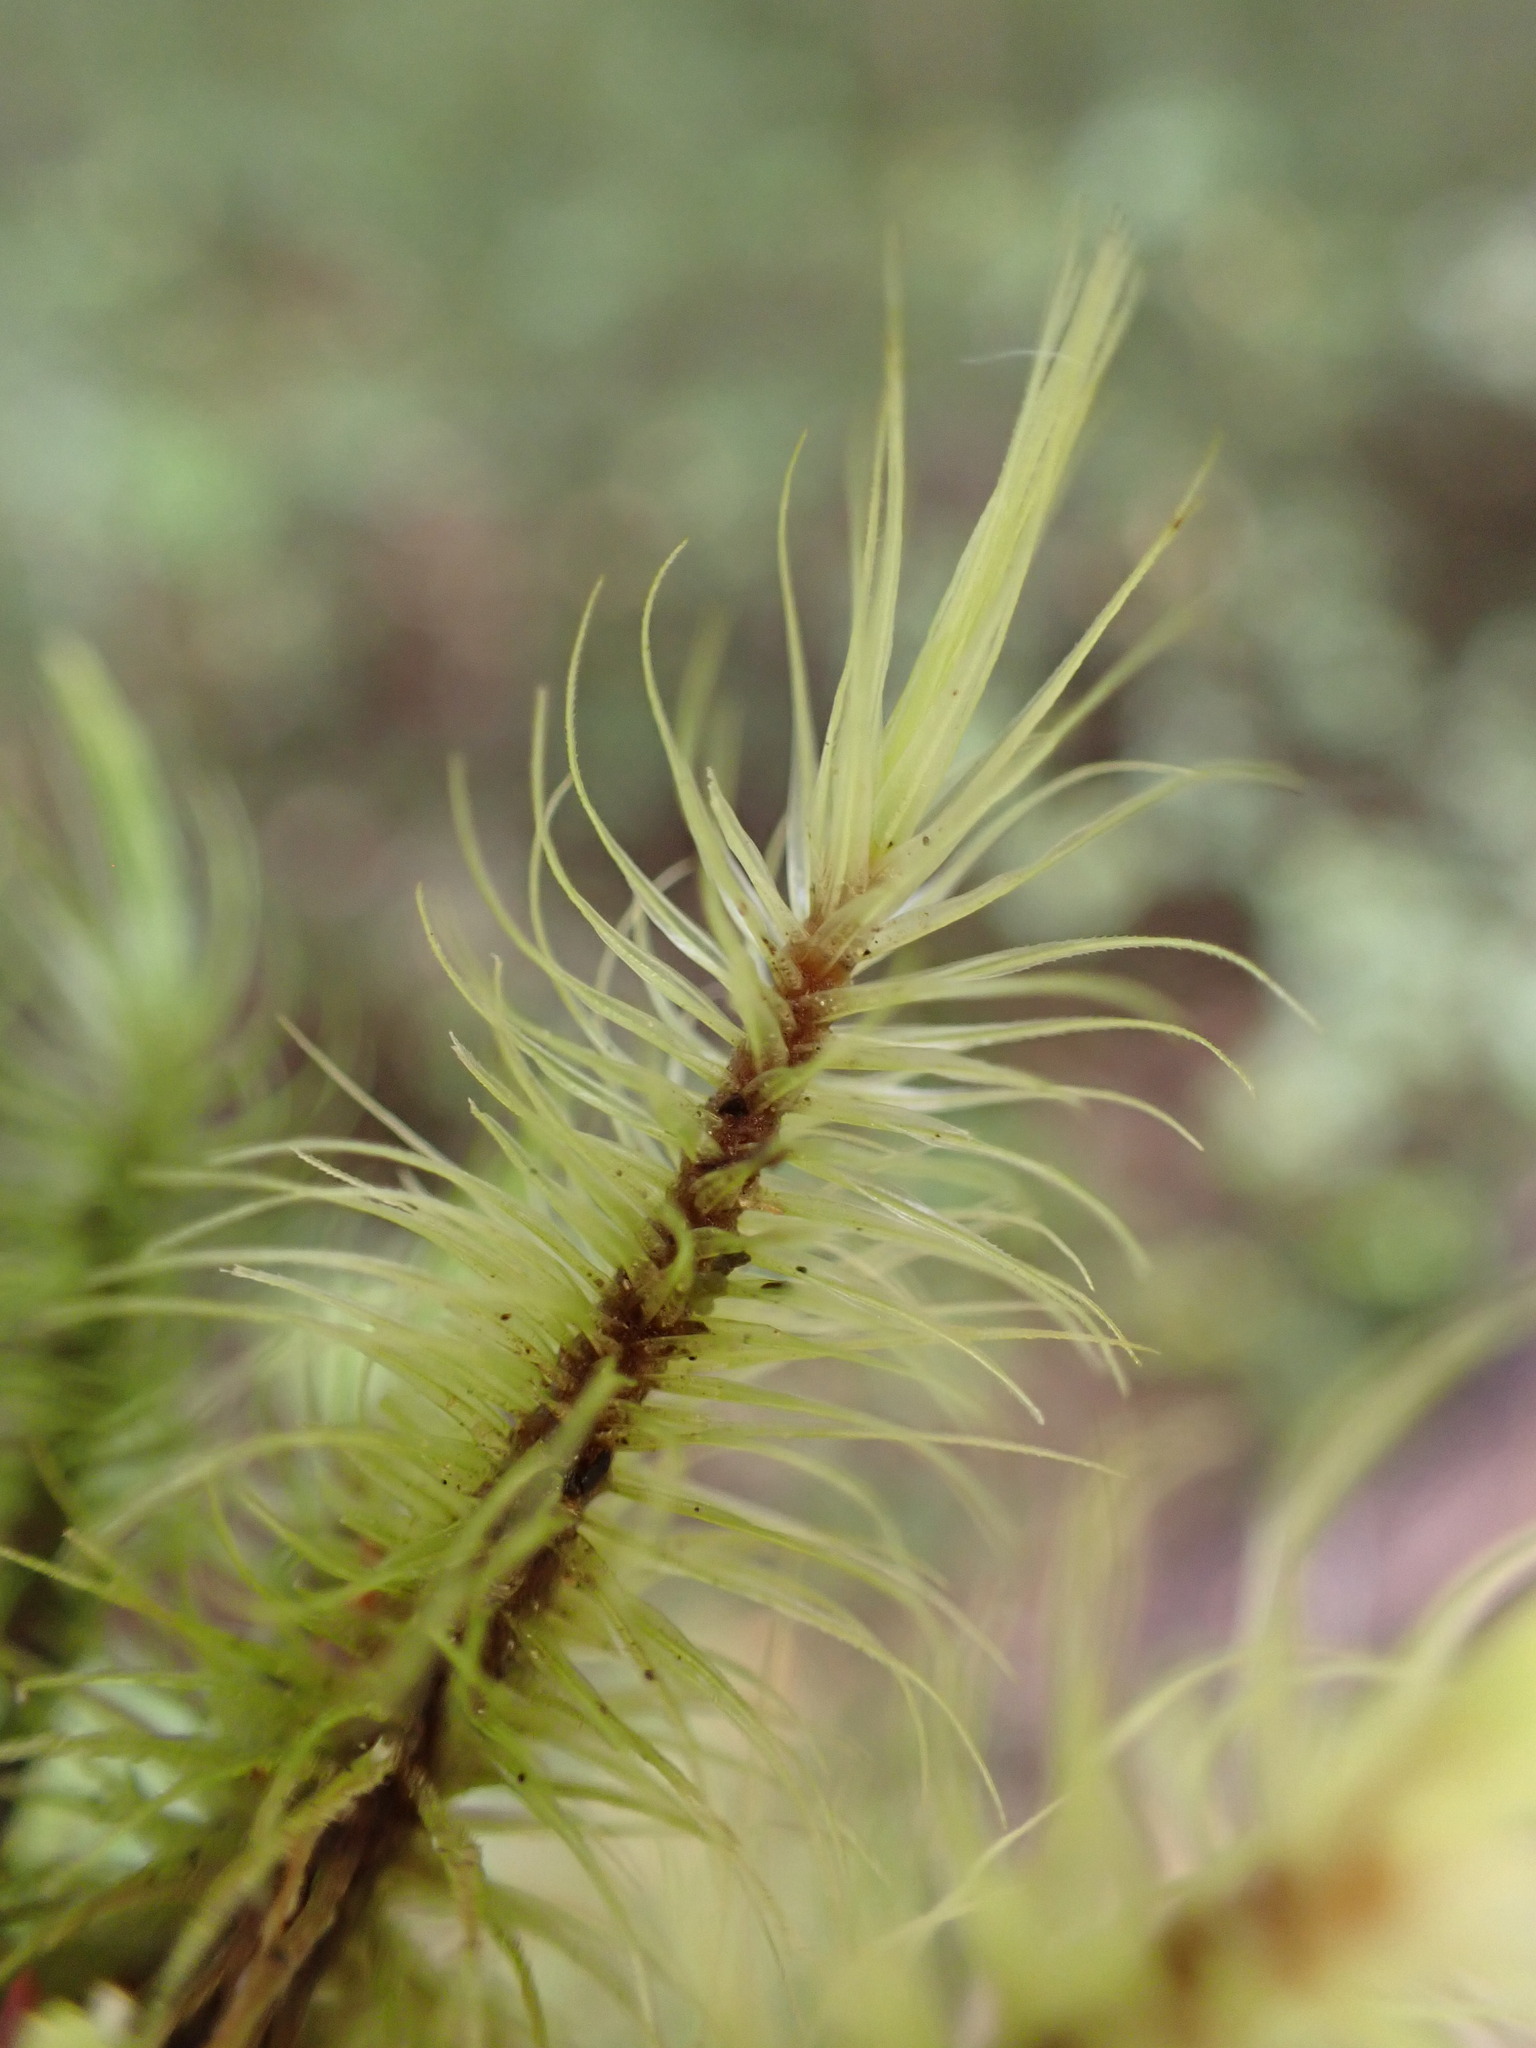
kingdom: Plantae
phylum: Bryophyta
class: Bryopsida
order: Dicranales
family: Dicranaceae
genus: Dicranoloma
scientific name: Dicranoloma dicarpon
